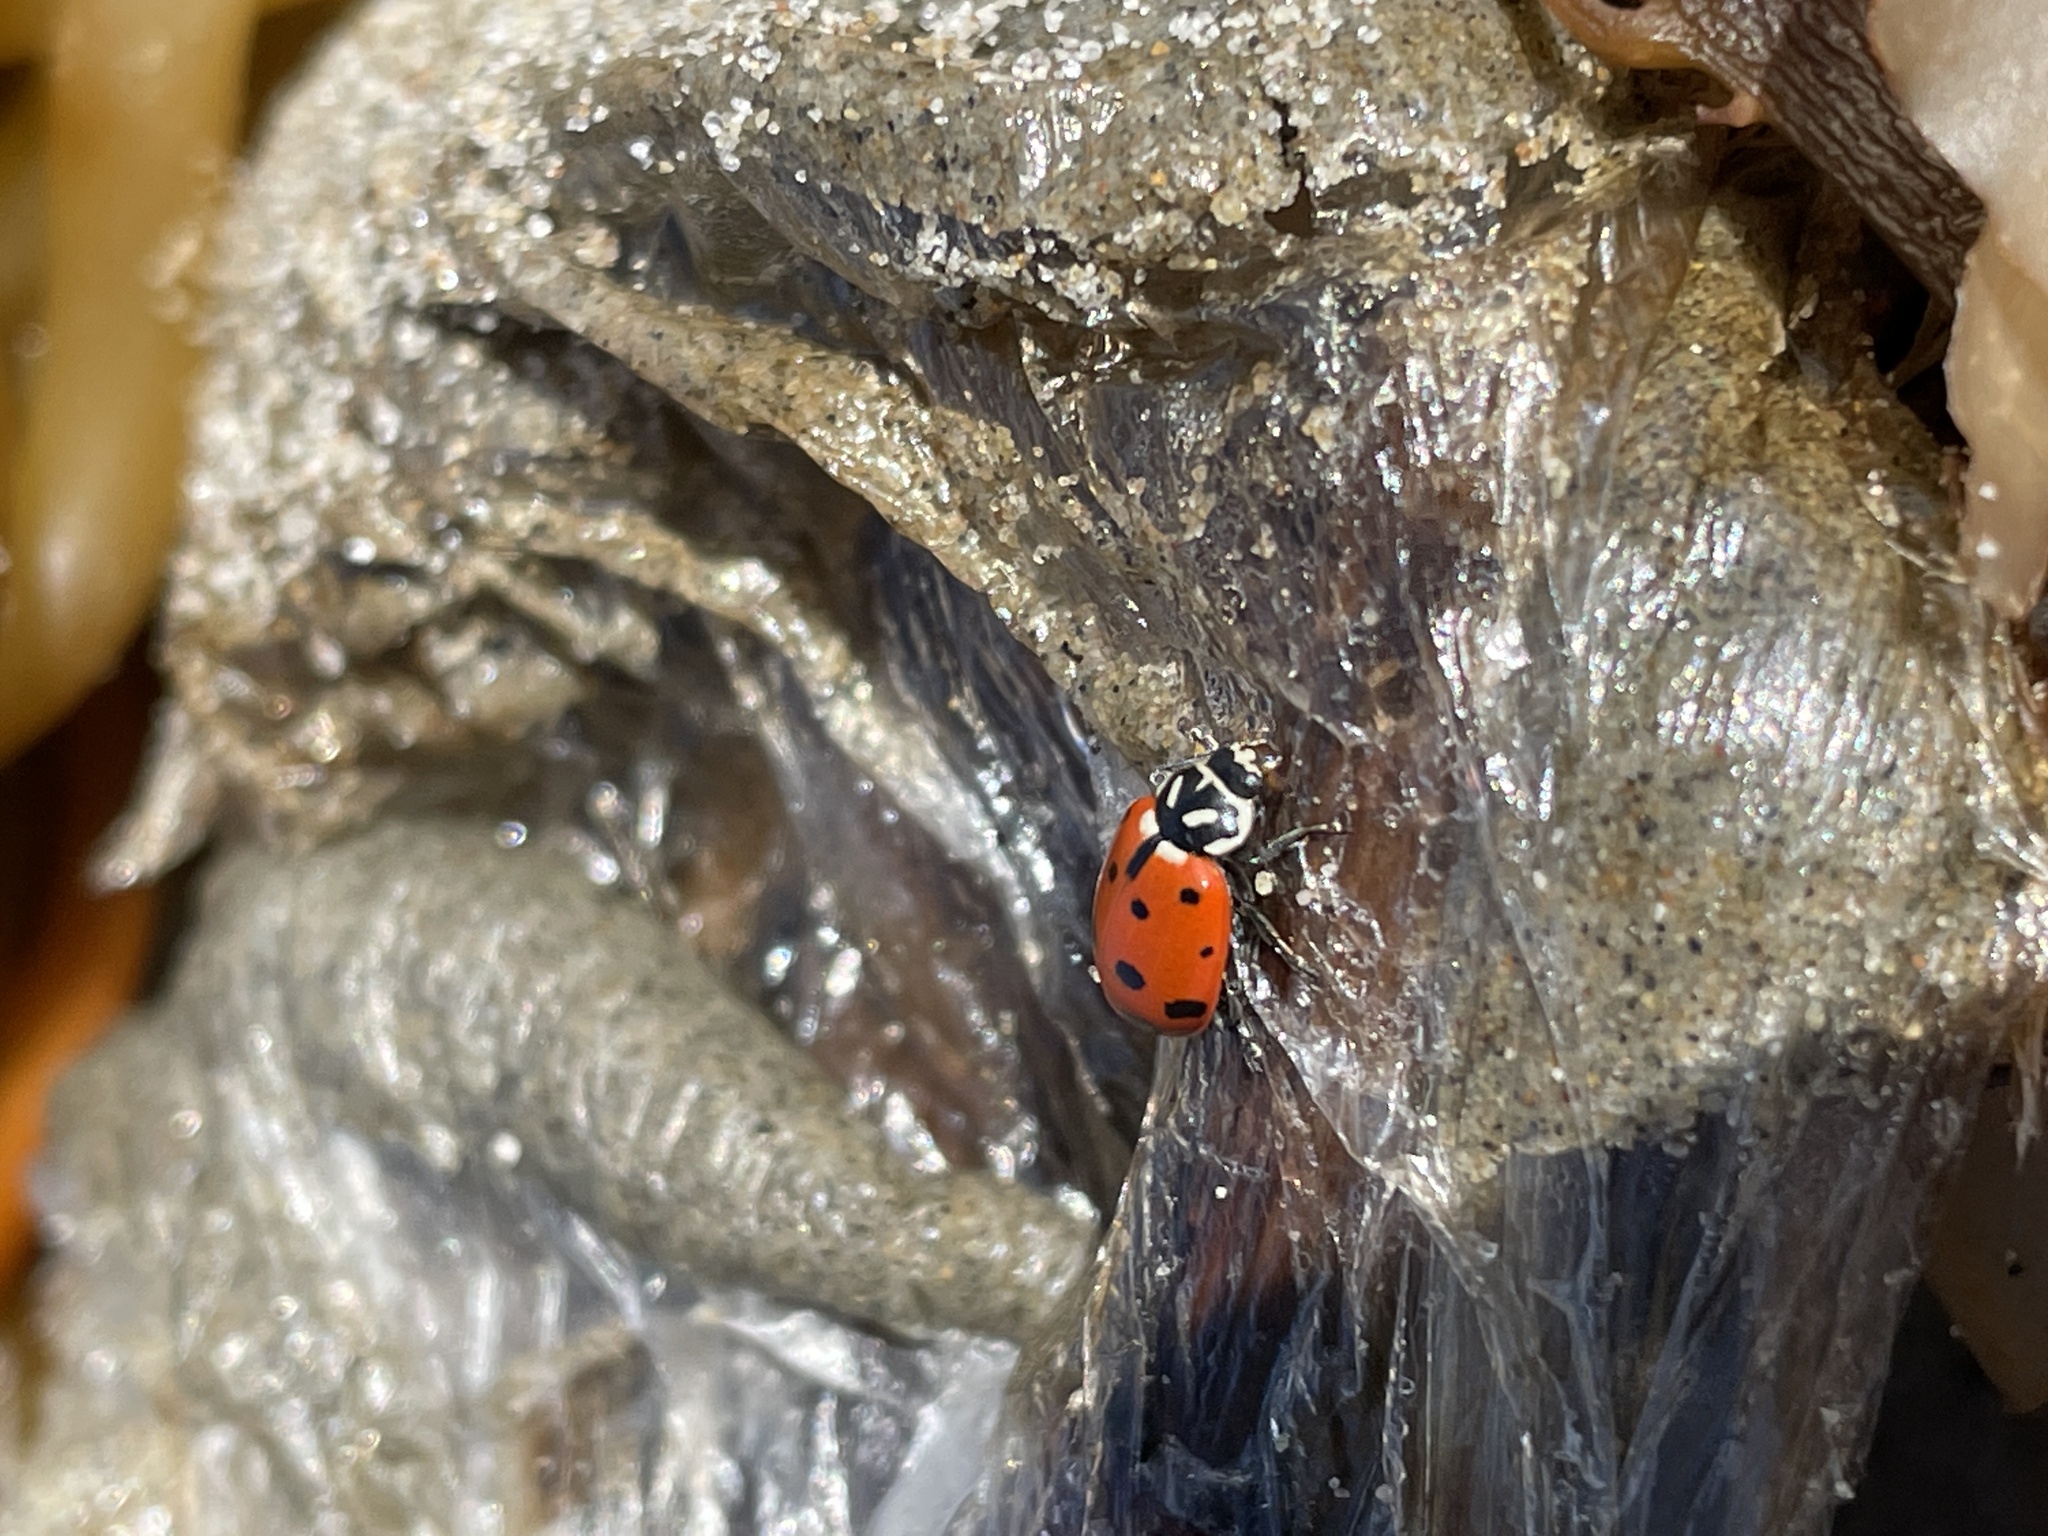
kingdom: Animalia
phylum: Arthropoda
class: Insecta
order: Coleoptera
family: Coccinellidae
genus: Hippodamia
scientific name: Hippodamia convergens
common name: Convergent lady beetle
